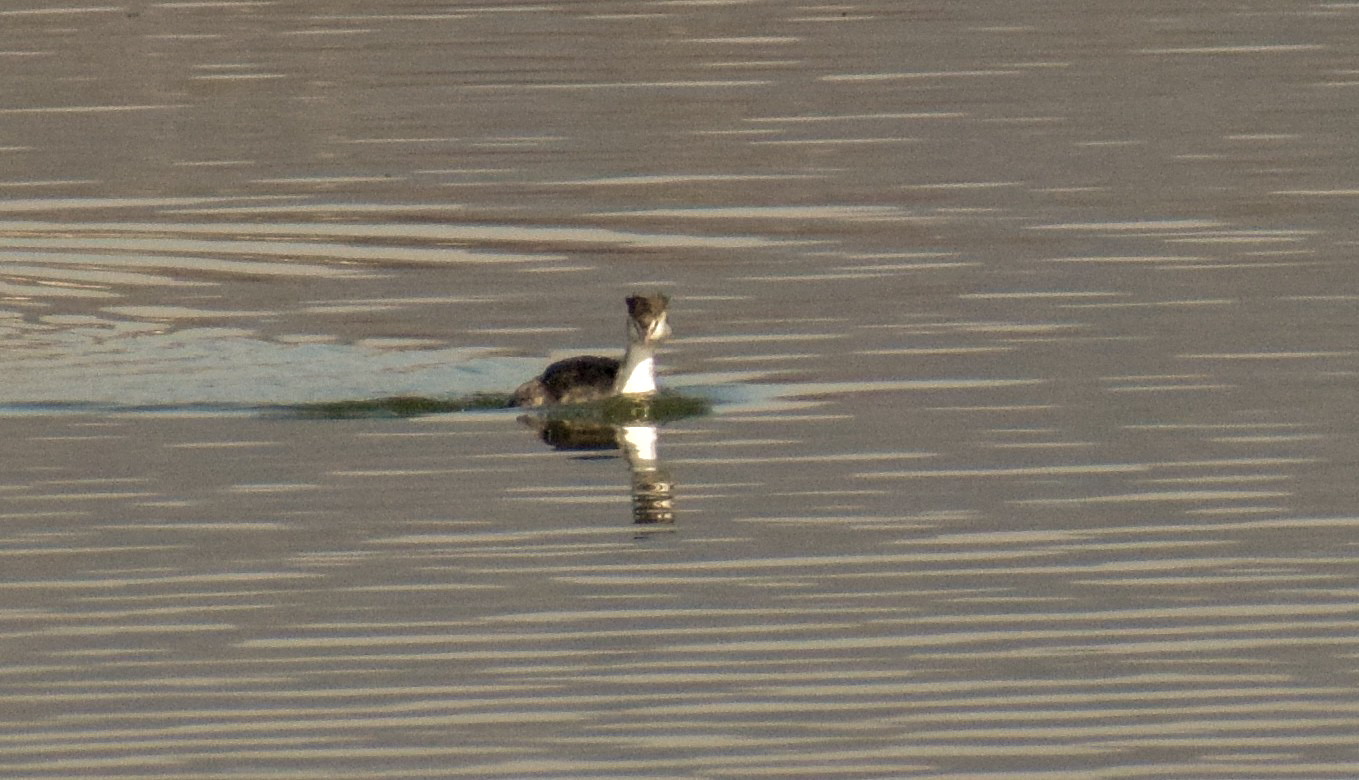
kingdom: Animalia
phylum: Chordata
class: Aves
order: Podicipediformes
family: Podicipedidae
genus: Podiceps
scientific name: Podiceps cristatus
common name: Great crested grebe
